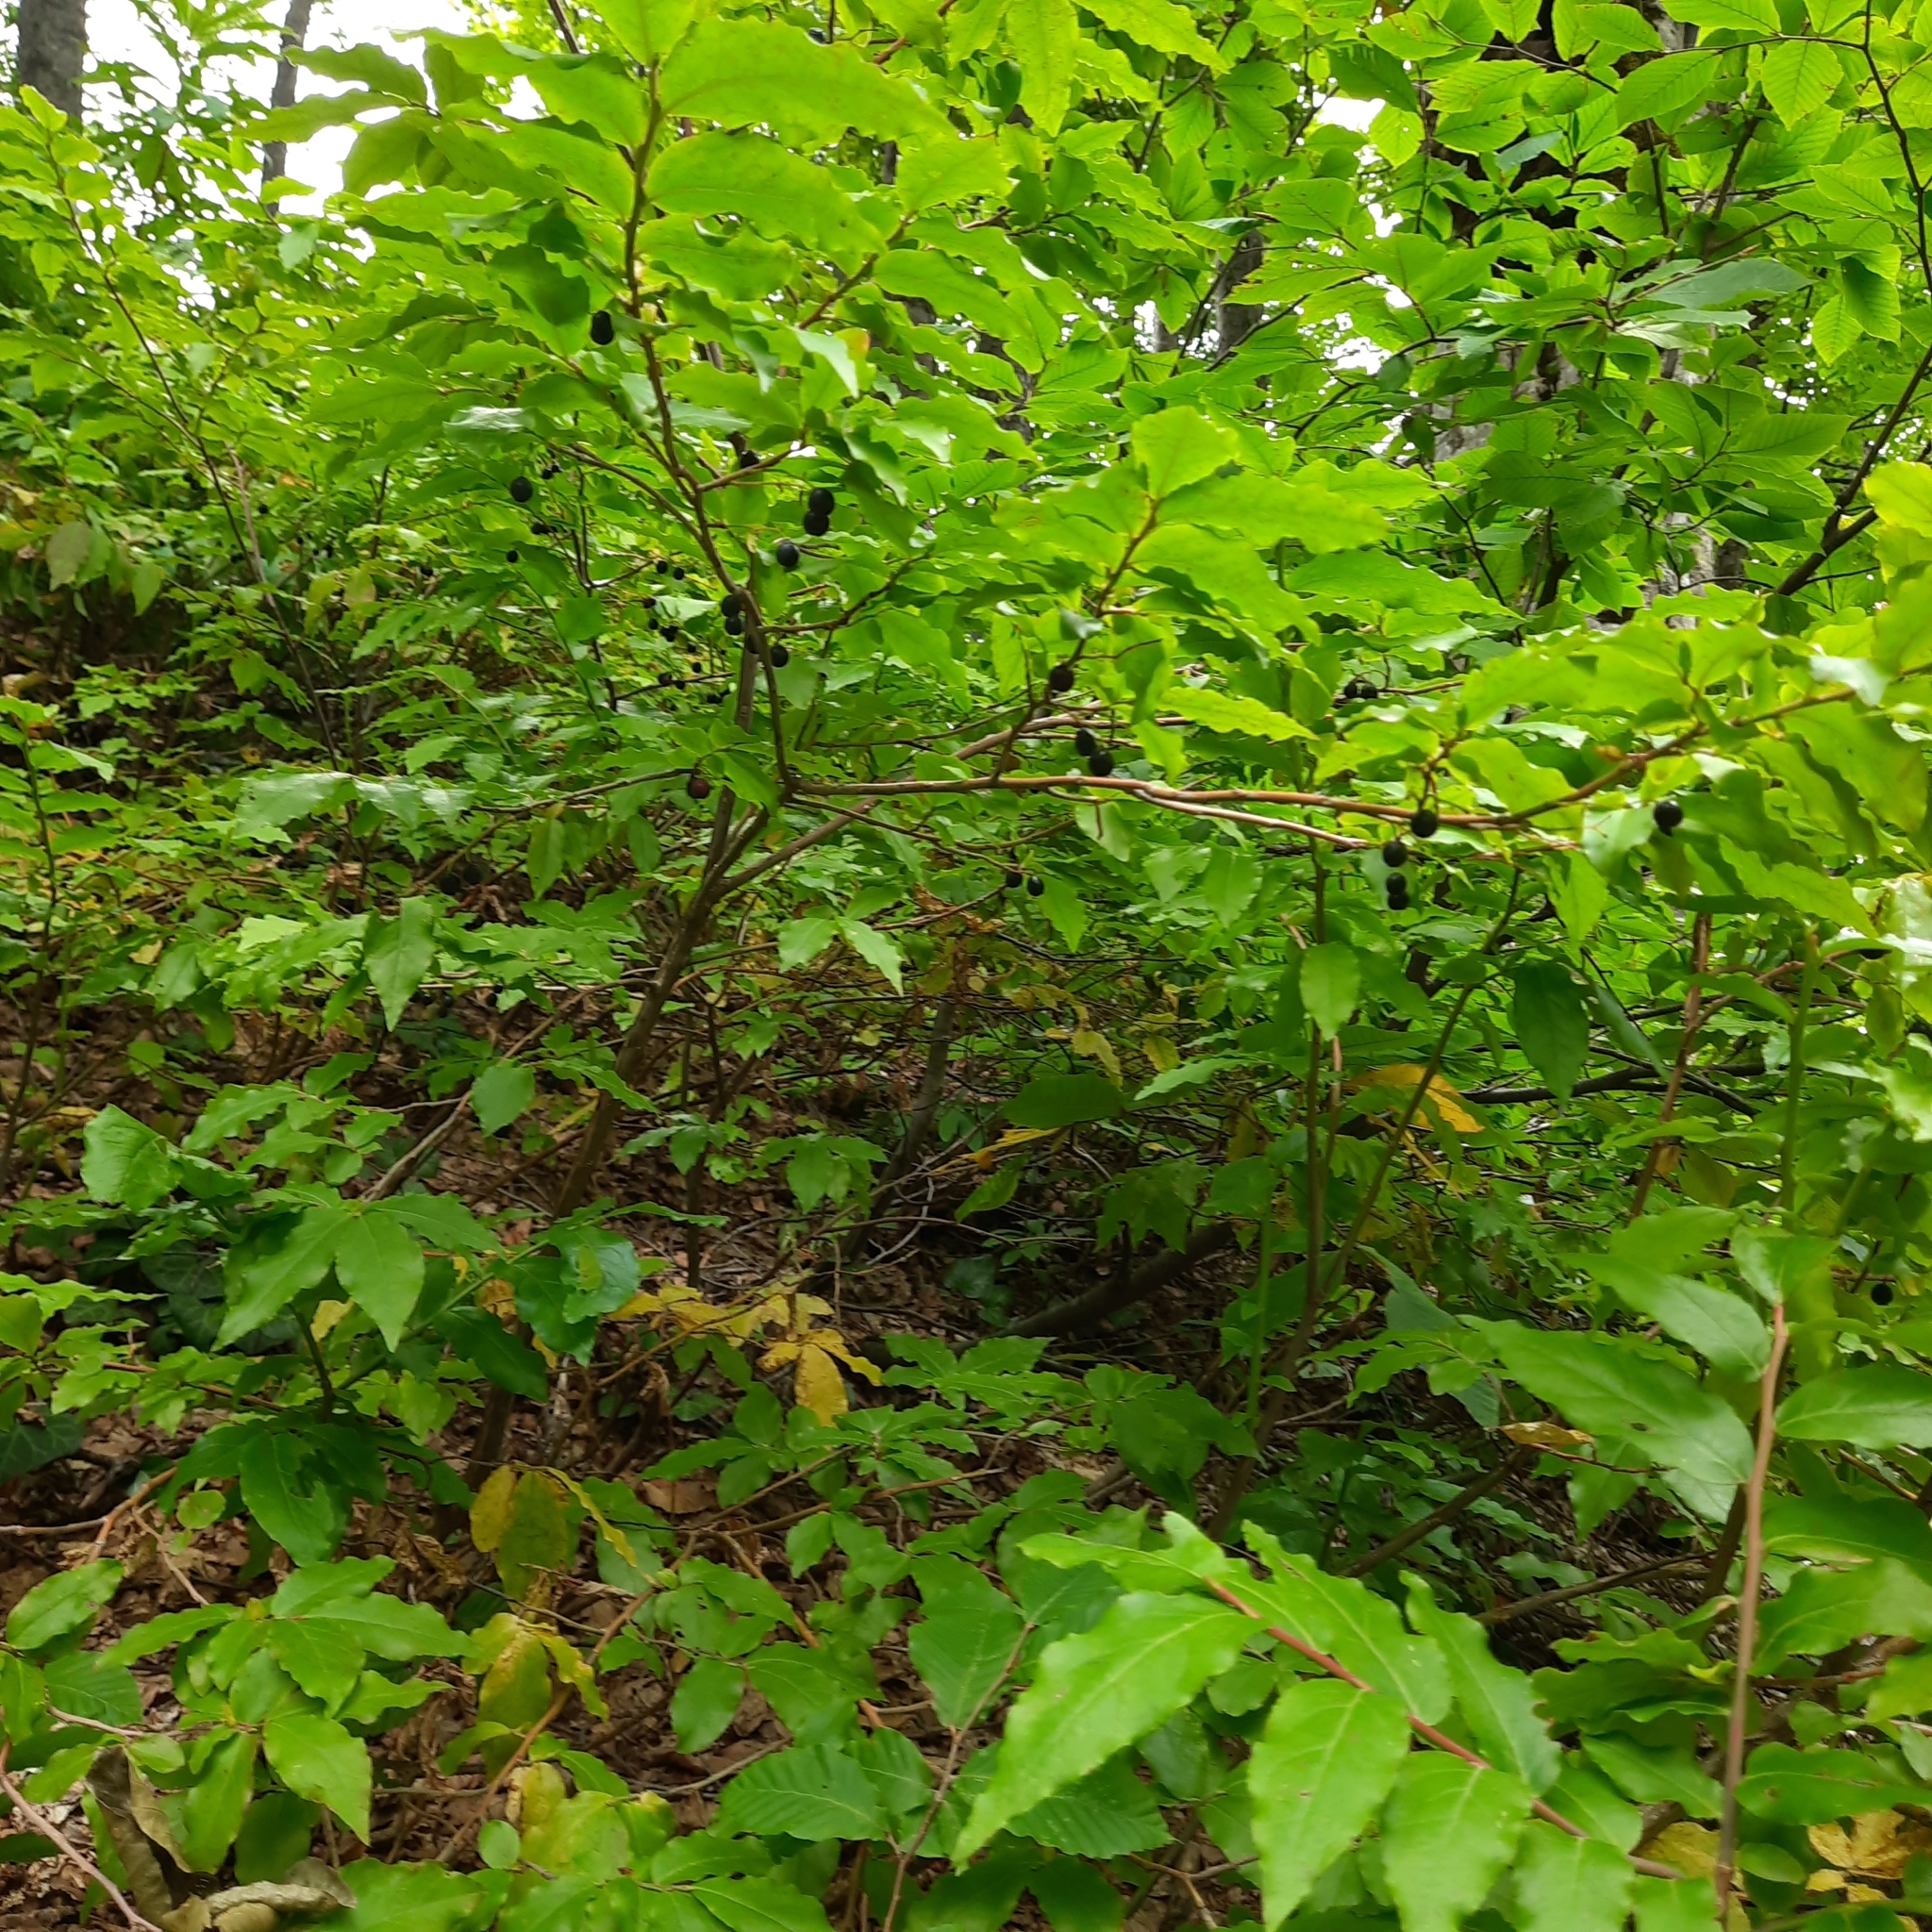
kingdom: Plantae
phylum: Tracheophyta
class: Magnoliopsida
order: Ericales
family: Ericaceae
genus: Vaccinium
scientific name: Vaccinium arctostaphylos
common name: Caucasian whortleberry
